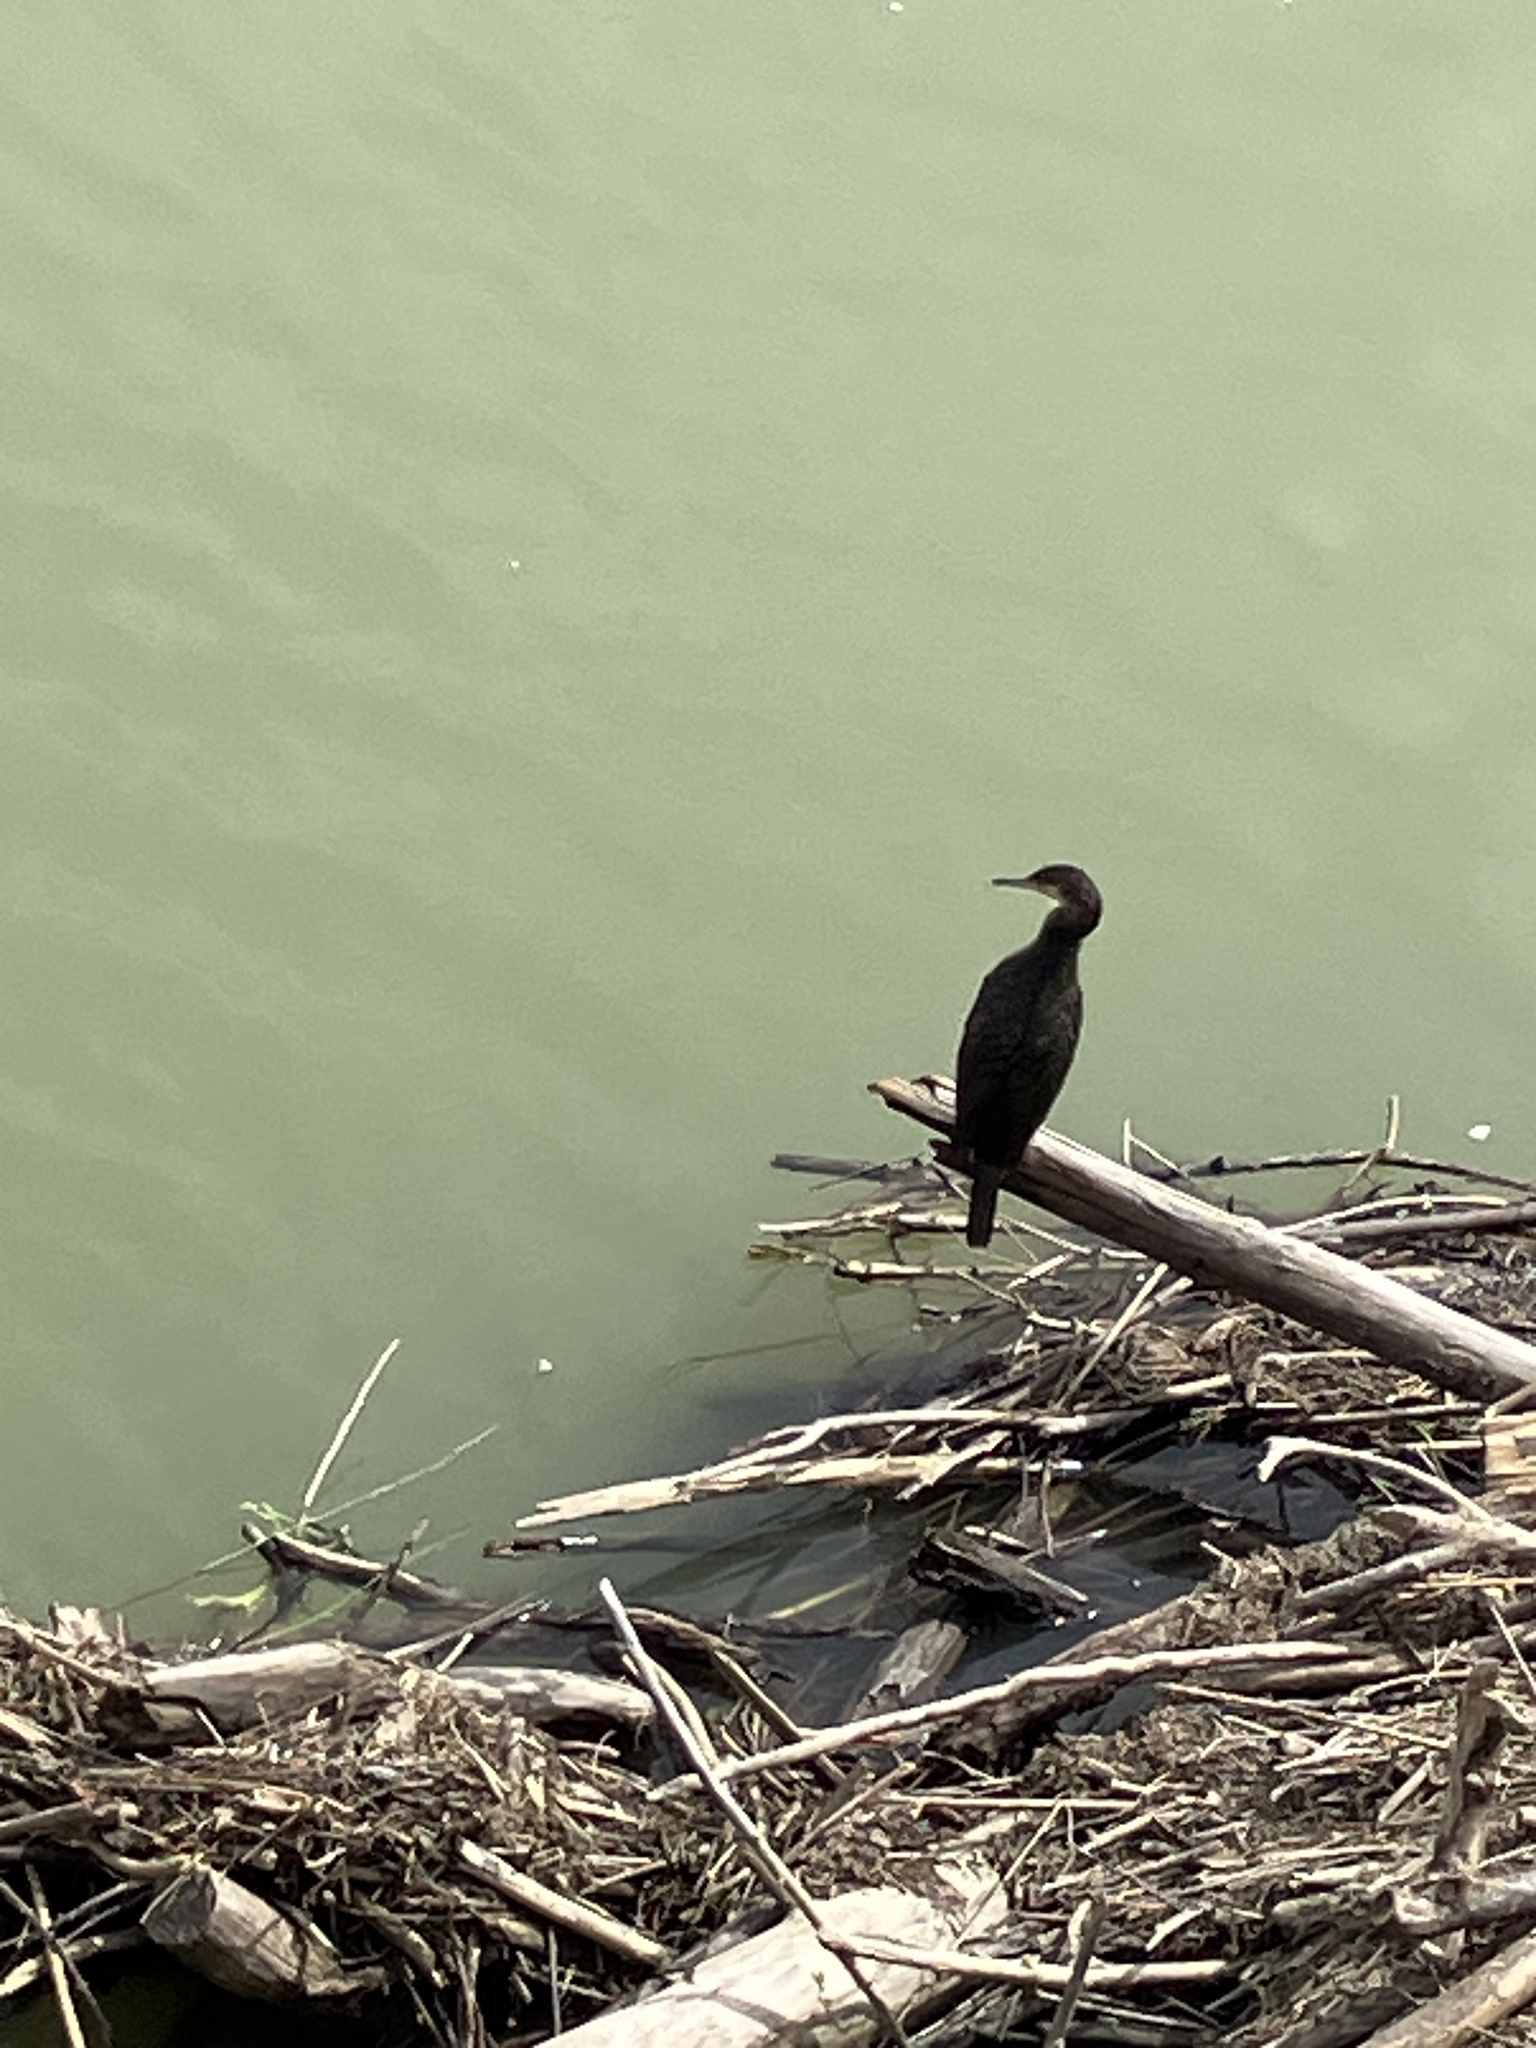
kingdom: Animalia
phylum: Chordata
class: Aves
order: Suliformes
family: Phalacrocoracidae
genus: Phalacrocorax
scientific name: Phalacrocorax carbo
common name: Great cormorant
